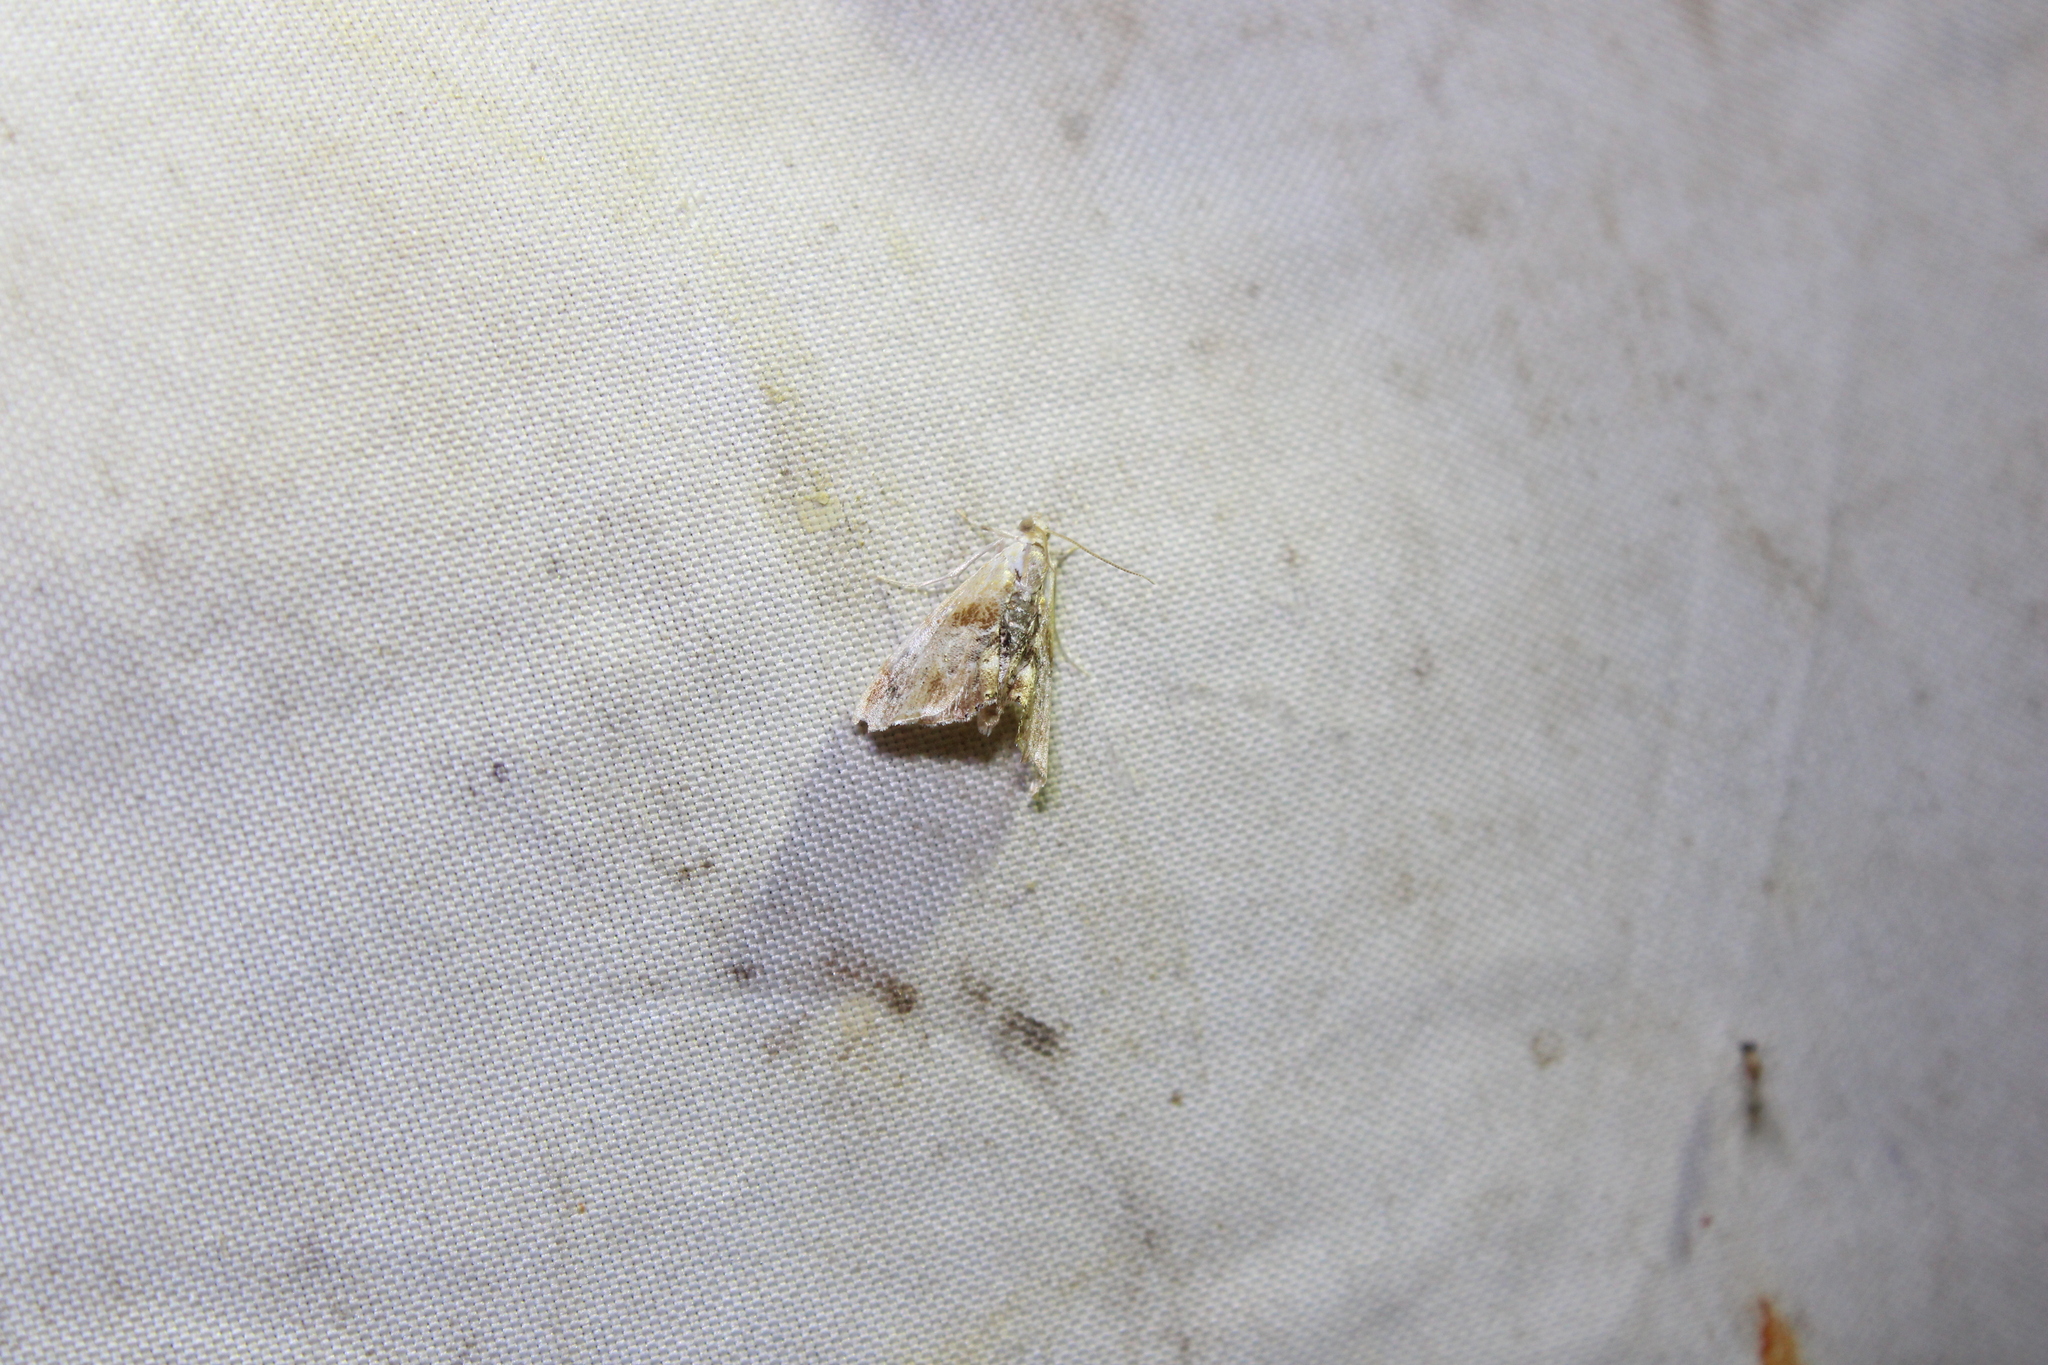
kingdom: Animalia
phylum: Arthropoda
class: Insecta
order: Lepidoptera
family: Crambidae
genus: Dicymolomia
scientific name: Dicymolomia julianalis
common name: Julia's dicymolomia moth
